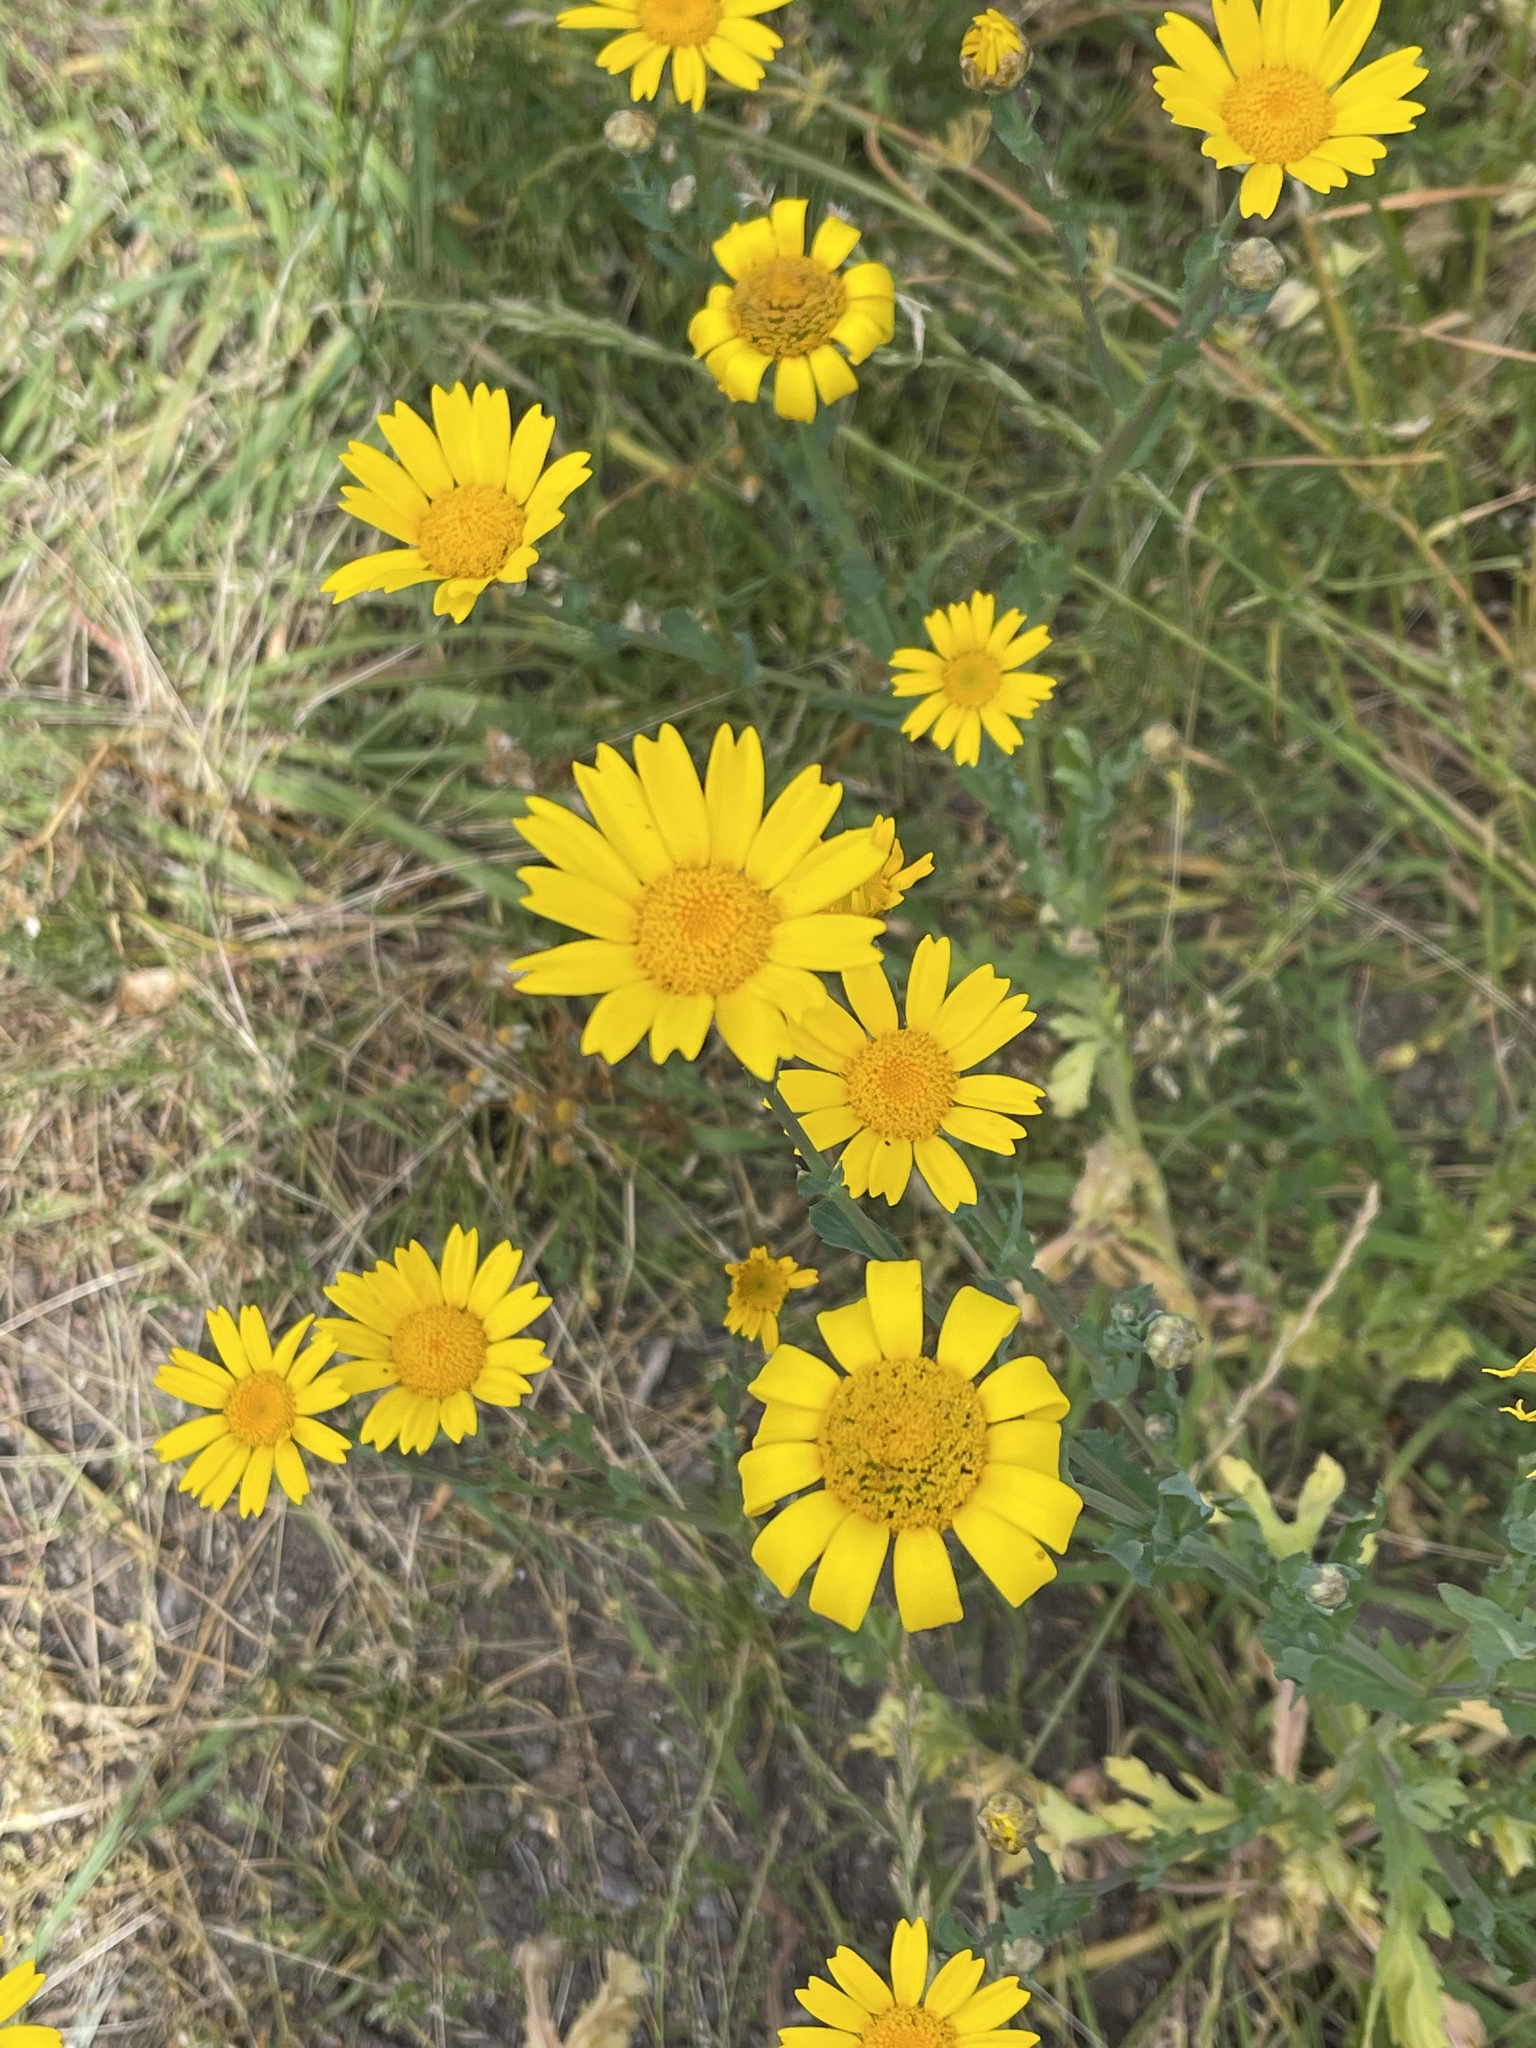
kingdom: Plantae
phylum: Tracheophyta
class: Magnoliopsida
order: Asterales
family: Asteraceae
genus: Glebionis
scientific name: Glebionis segetum
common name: Corndaisy
